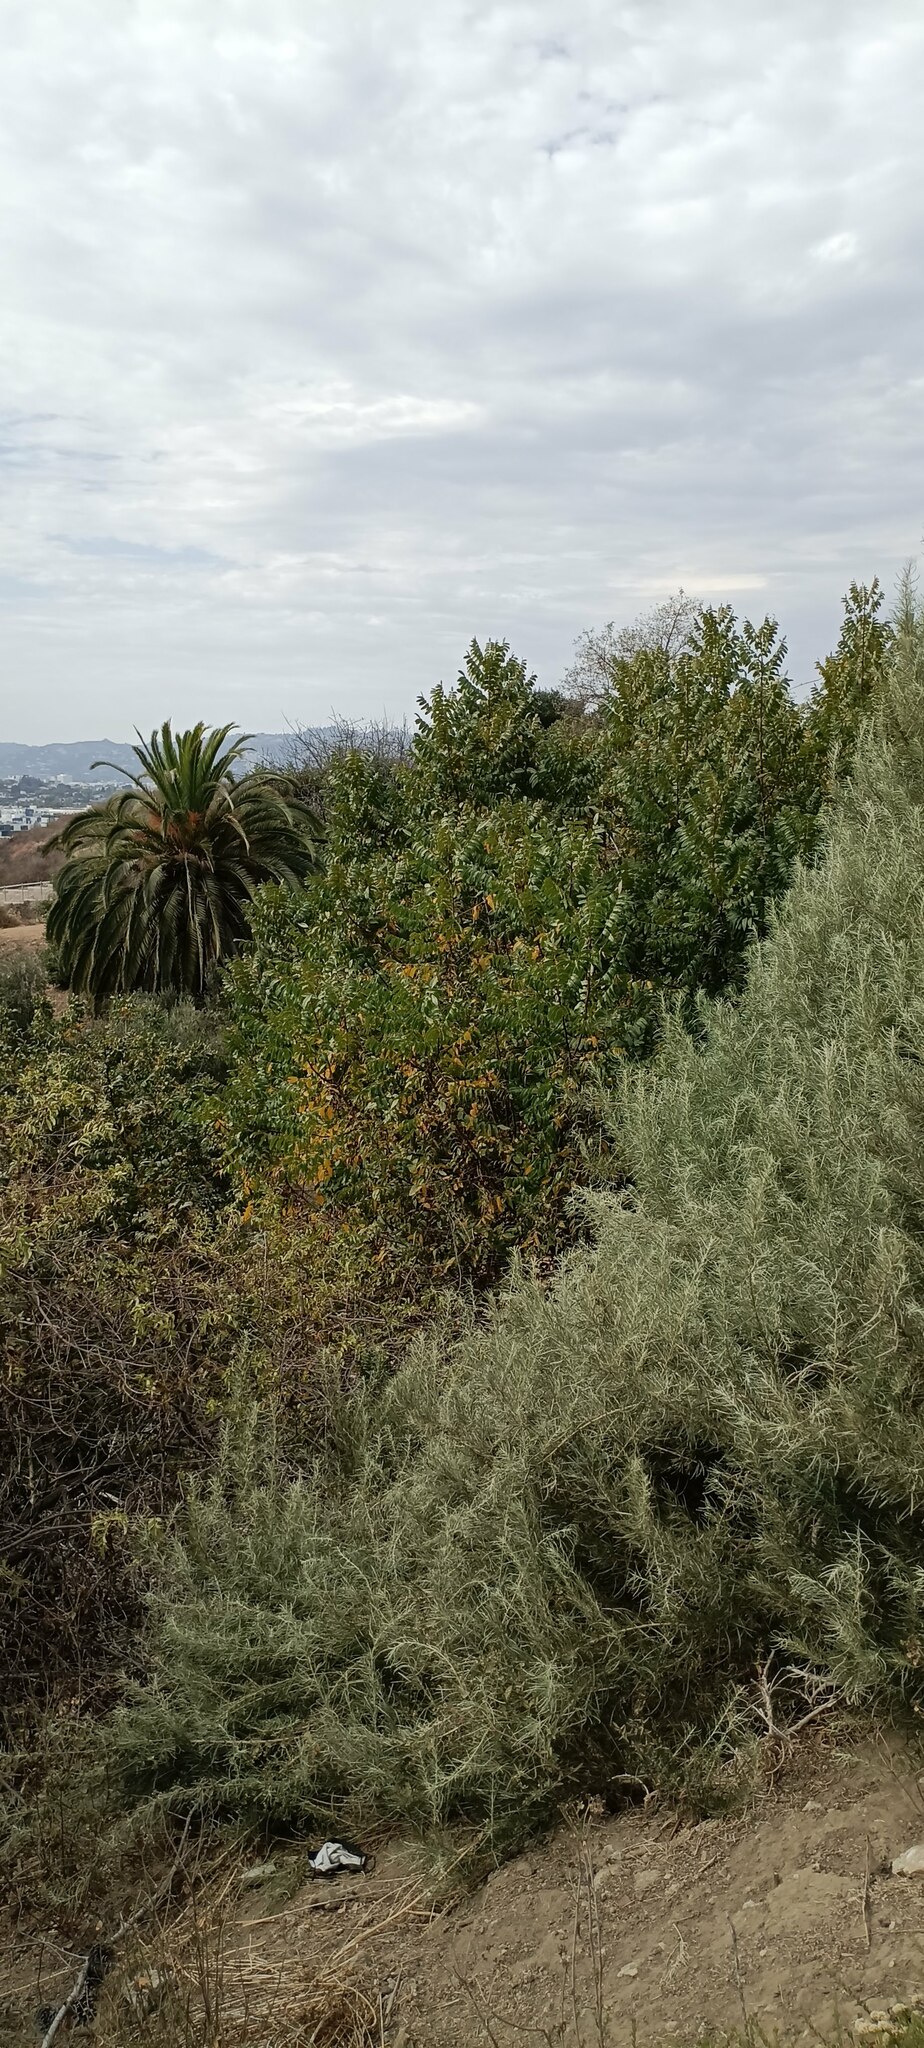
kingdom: Plantae
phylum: Tracheophyta
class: Magnoliopsida
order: Fagales
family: Juglandaceae
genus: Juglans
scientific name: Juglans californica
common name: Southern california black walnut
